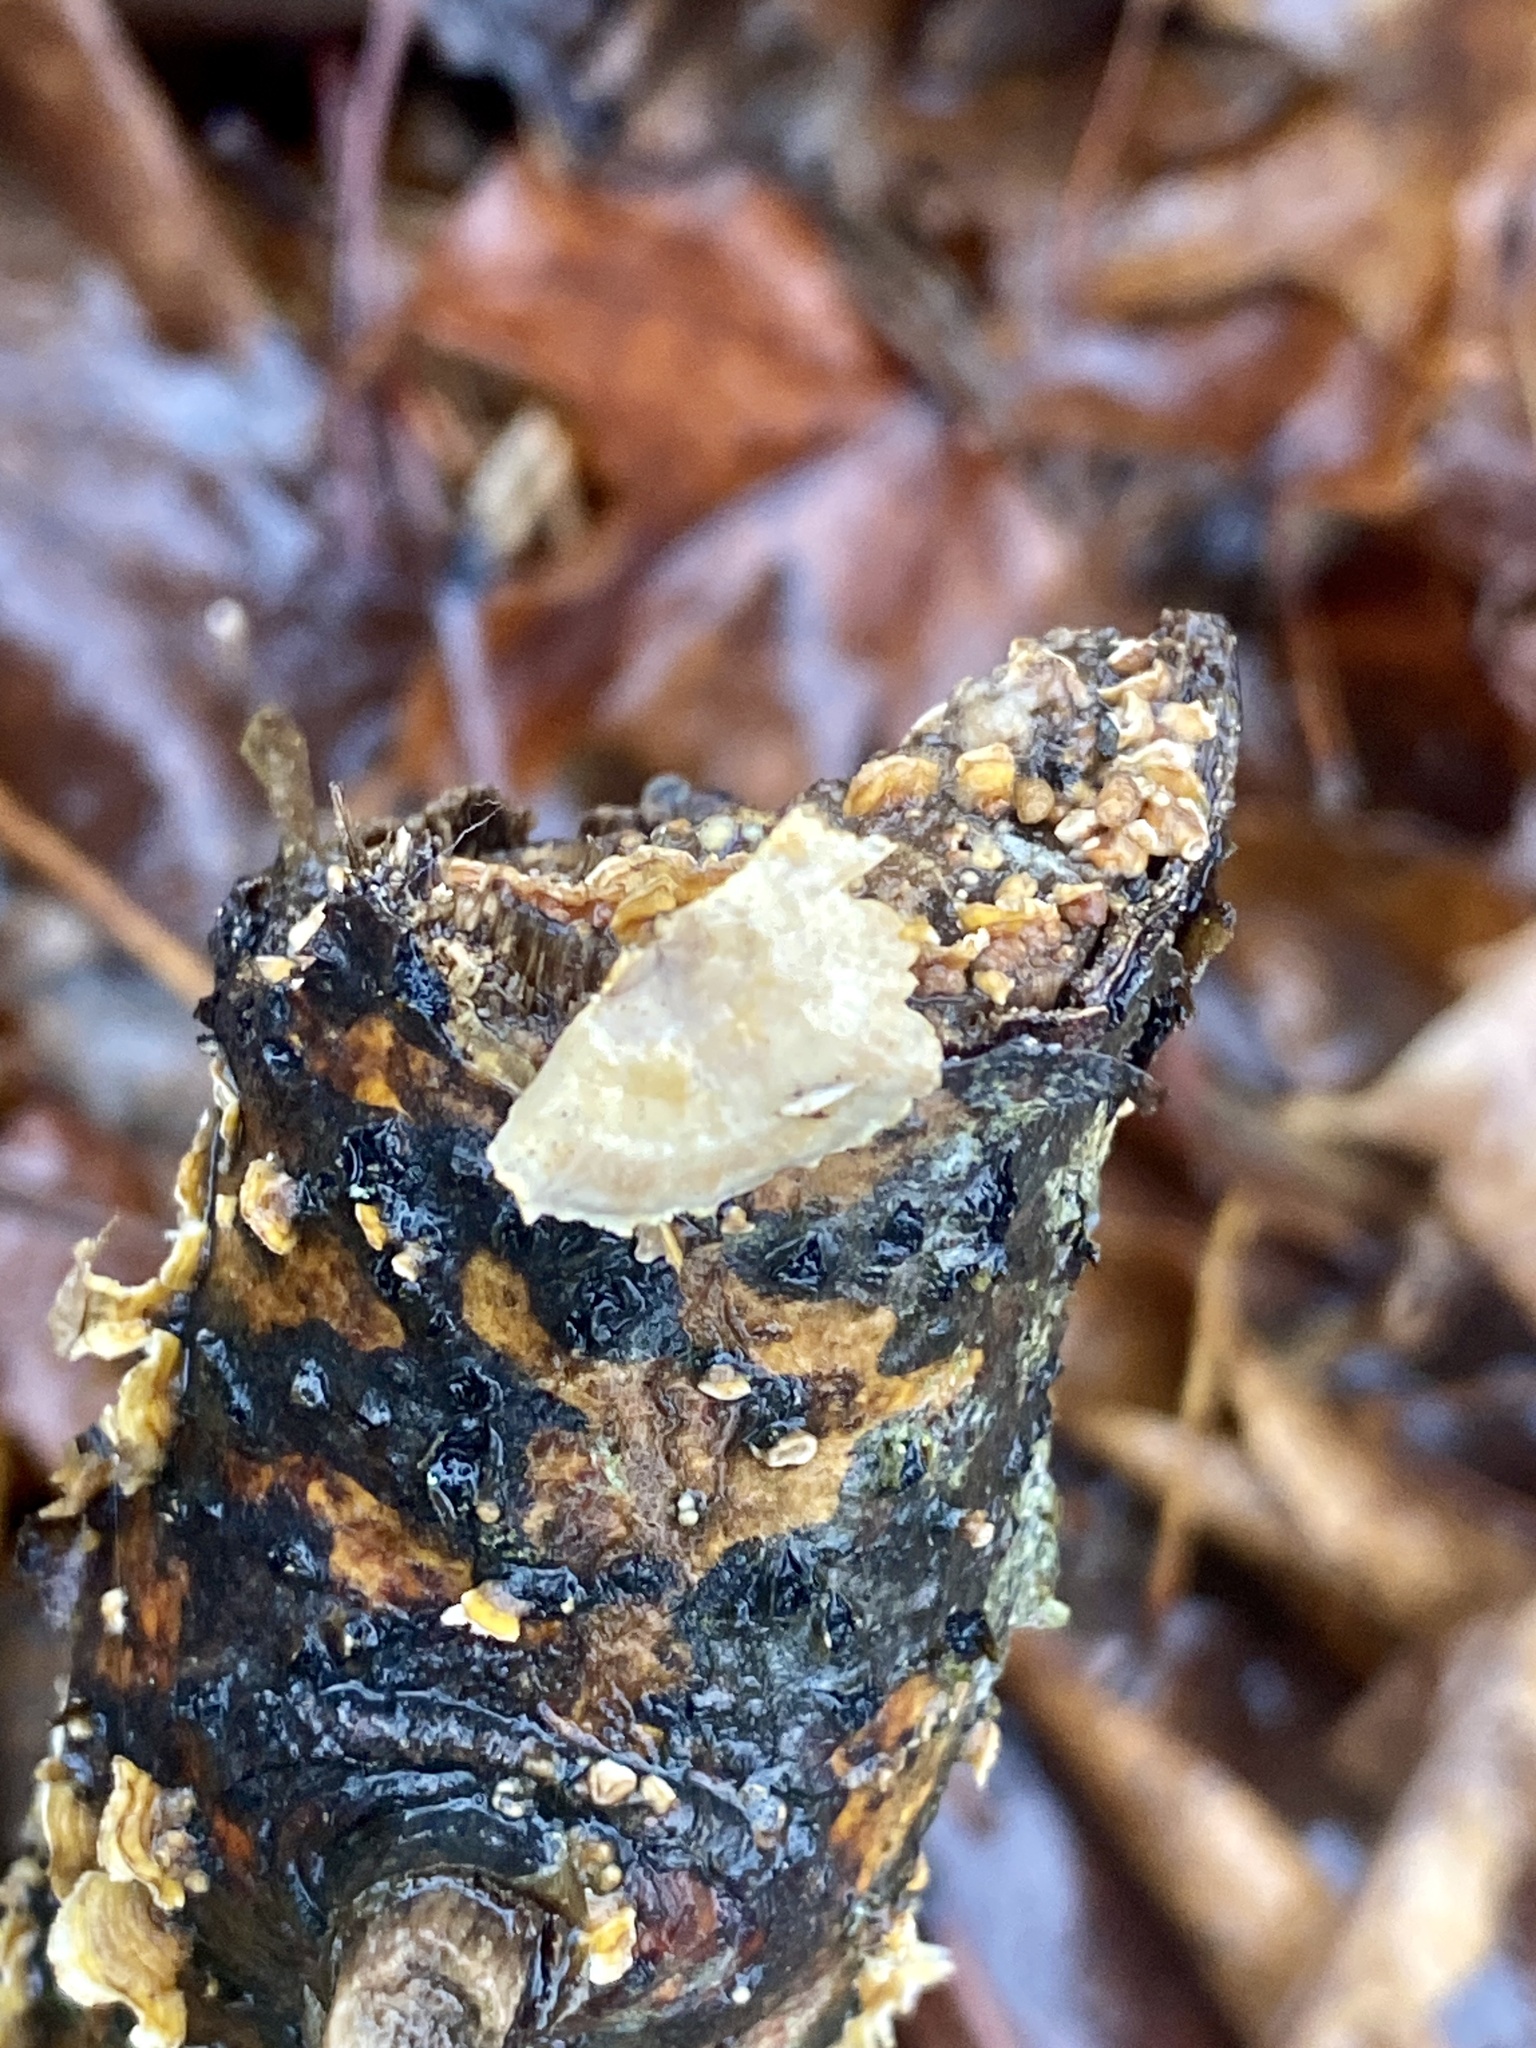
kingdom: Fungi
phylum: Basidiomycota
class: Agaricomycetes
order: Russulales
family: Stereaceae
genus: Stereum
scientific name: Stereum complicatum
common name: Crowded parchment
